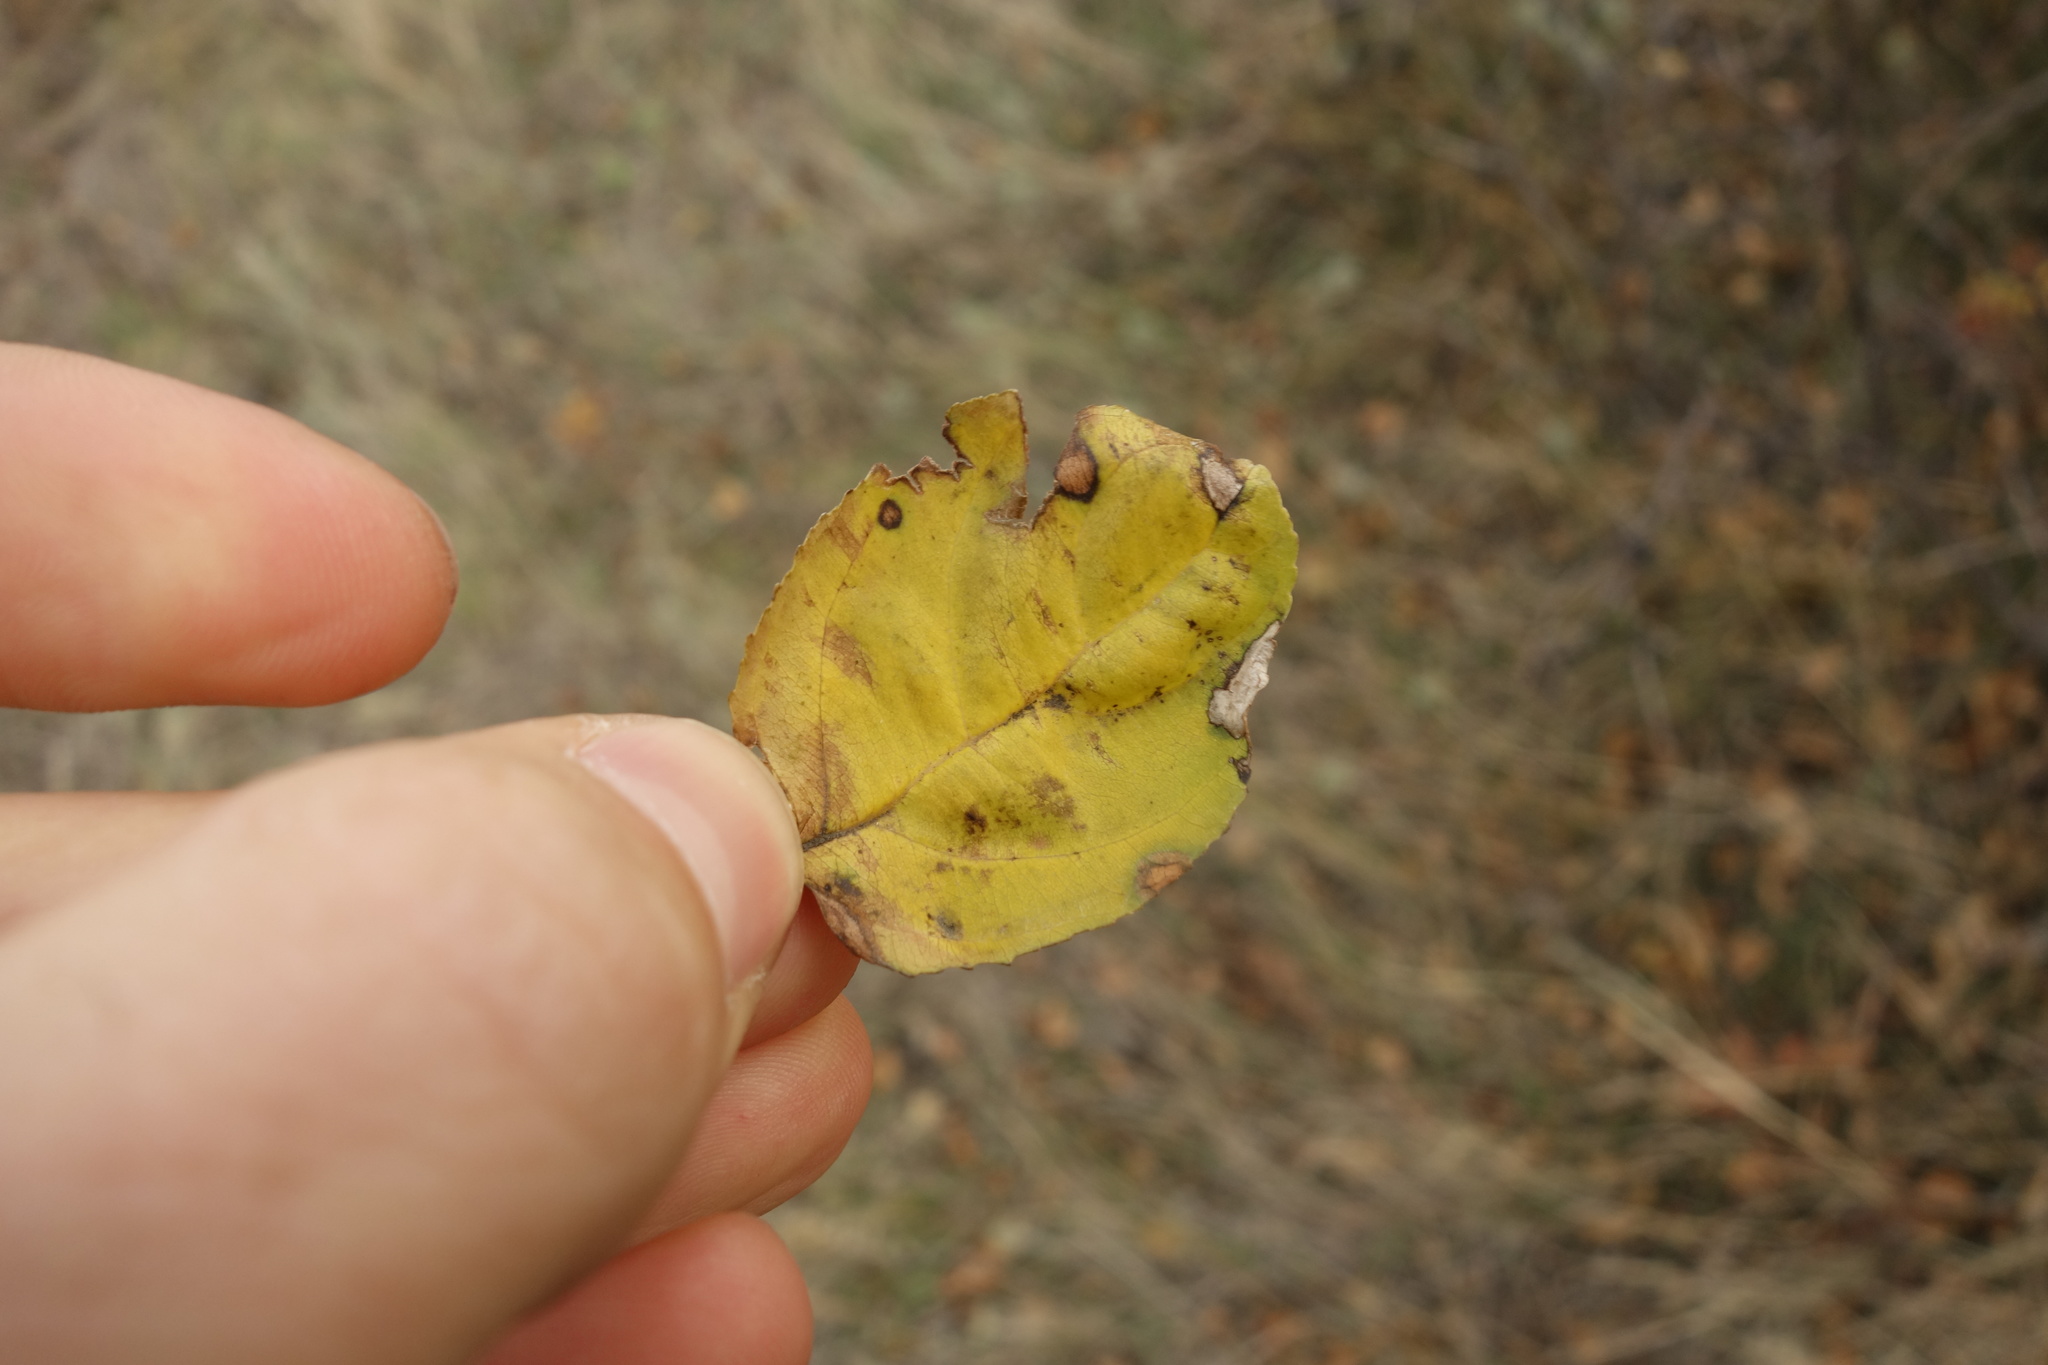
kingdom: Plantae
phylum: Tracheophyta
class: Magnoliopsida
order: Rosales
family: Rhamnaceae
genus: Rhamnus
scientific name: Rhamnus cathartica
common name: Common buckthorn
